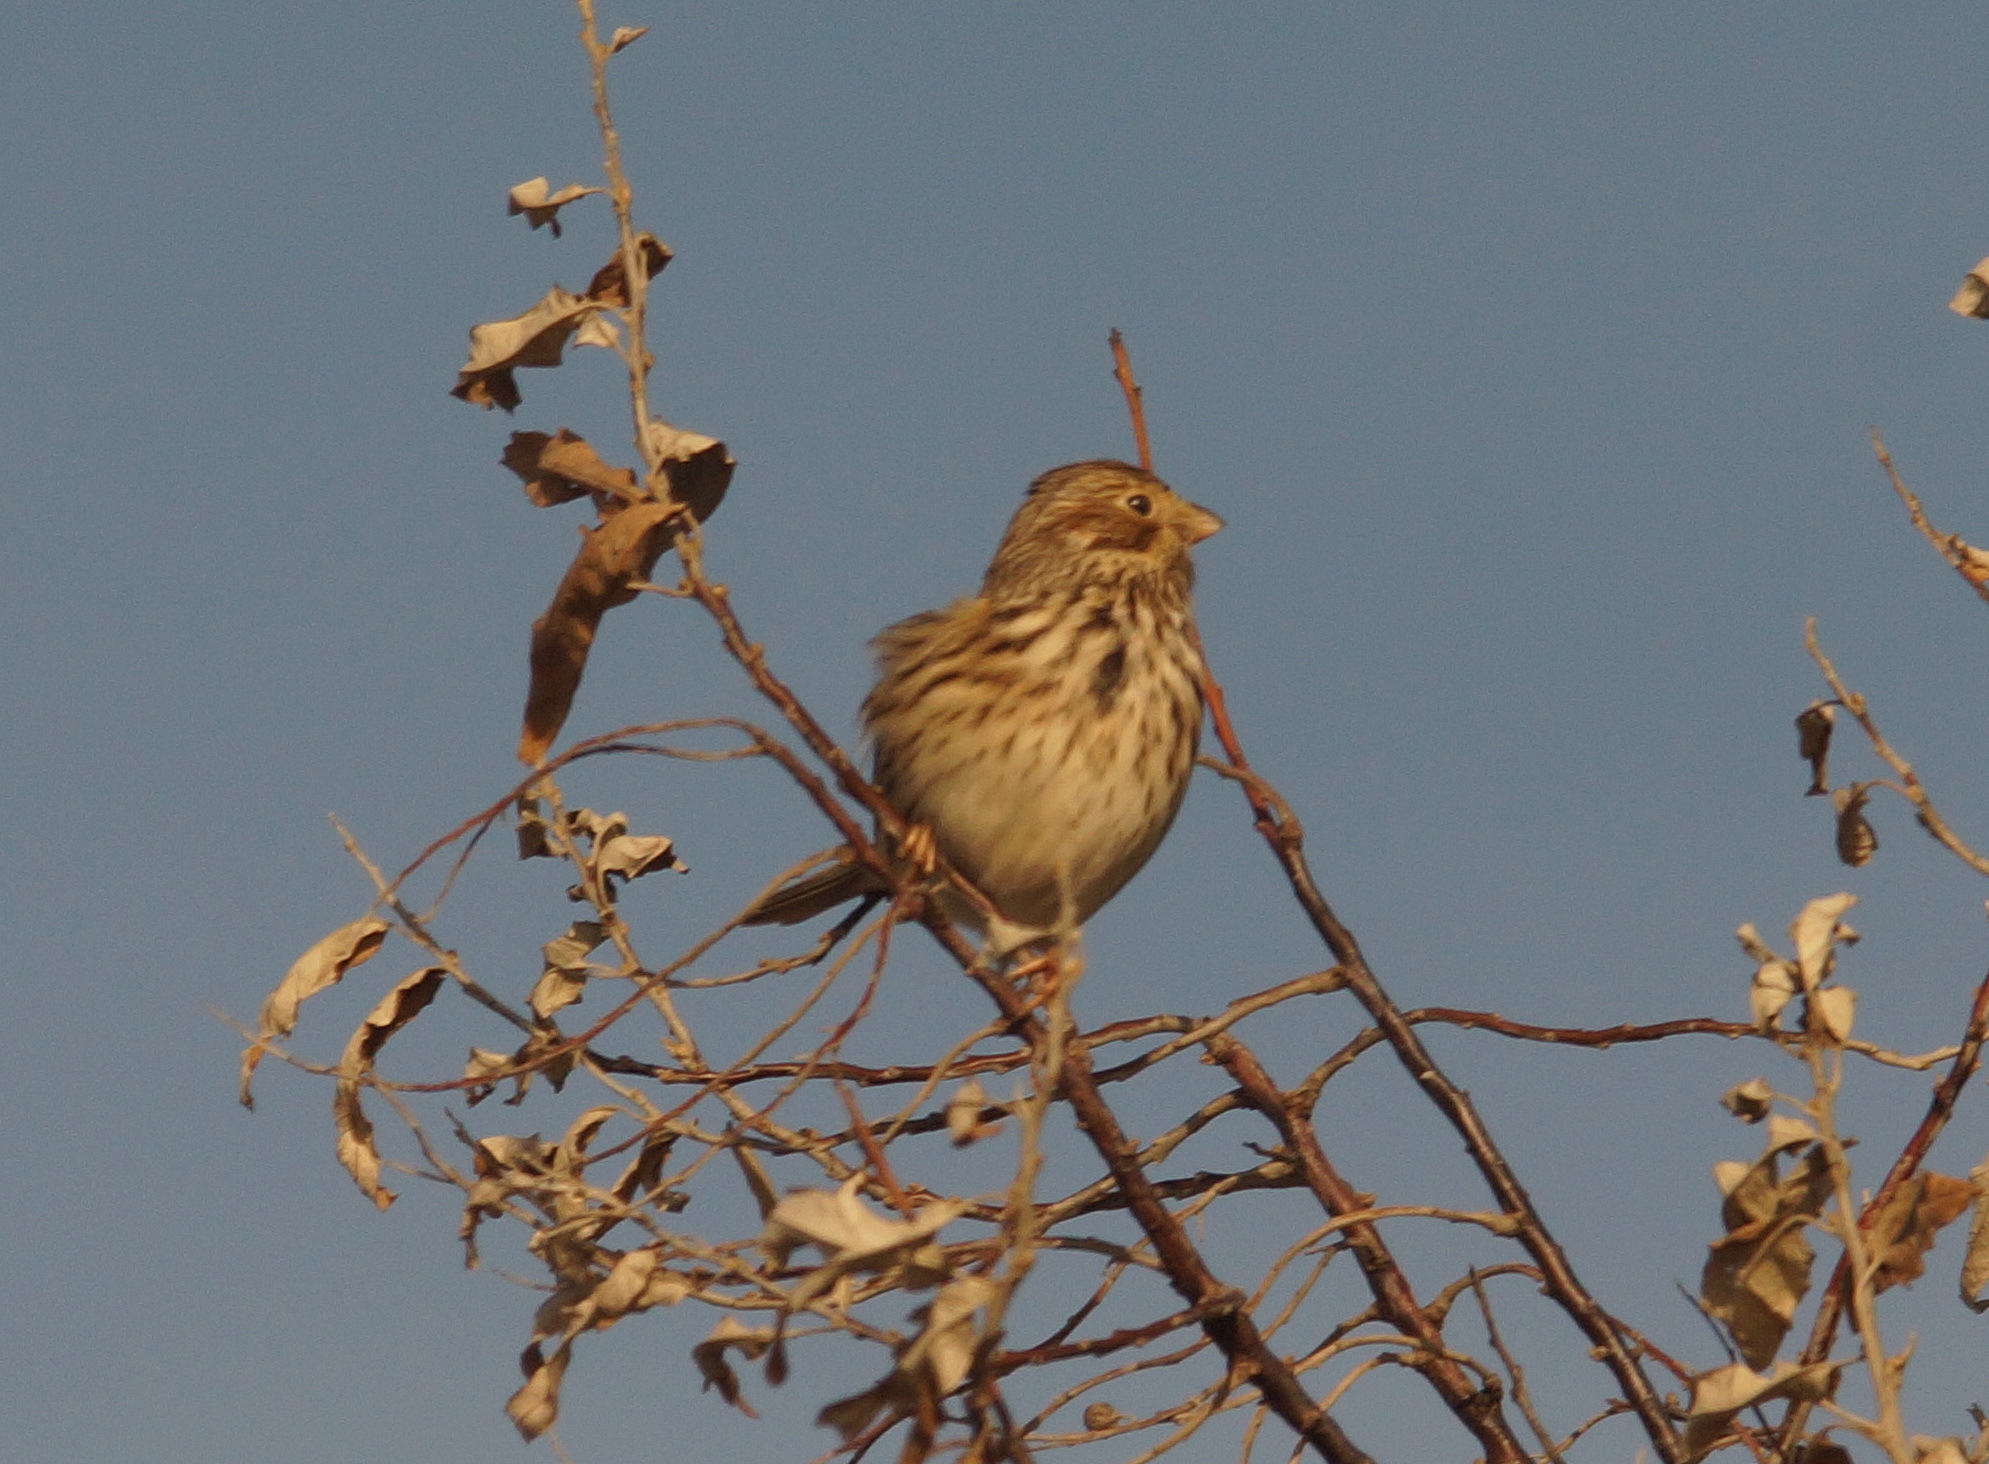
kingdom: Animalia
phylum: Chordata
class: Aves
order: Passeriformes
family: Emberizidae
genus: Emberiza
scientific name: Emberiza calandra
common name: Corn bunting
